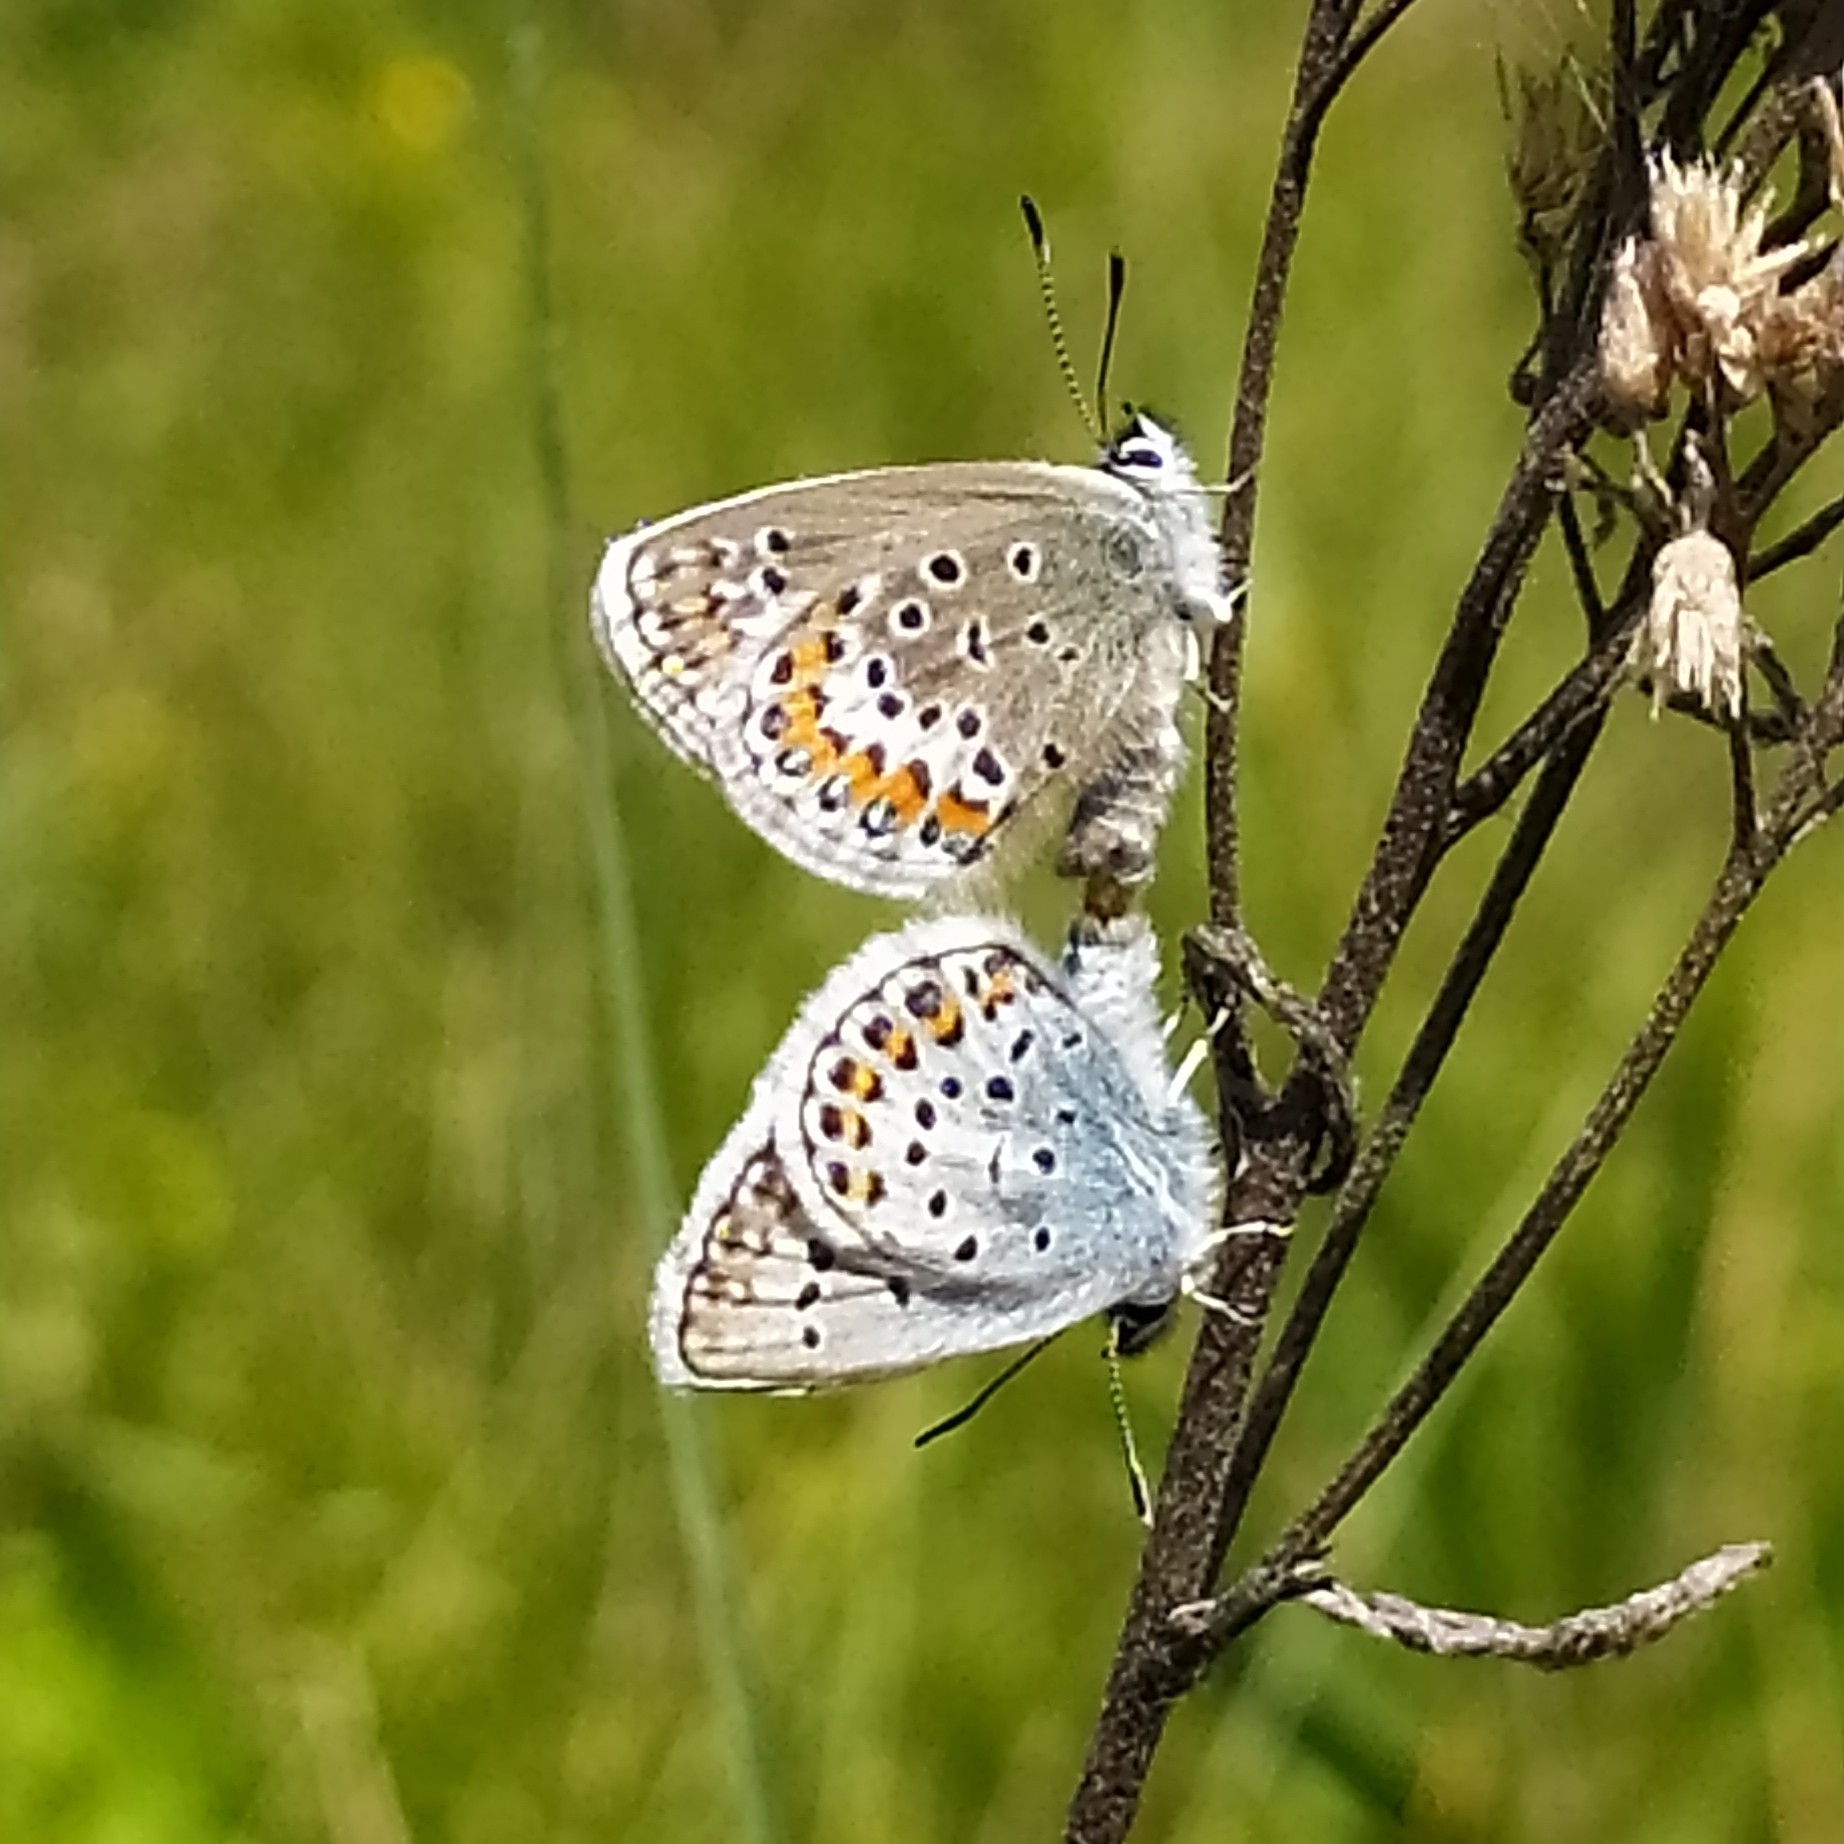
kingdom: Animalia
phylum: Arthropoda
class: Insecta
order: Lepidoptera
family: Lycaenidae
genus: Plebejus
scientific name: Plebejus argus
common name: Silver-studded blue
